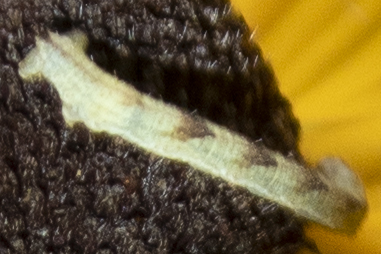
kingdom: Animalia
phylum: Arthropoda
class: Insecta
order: Lepidoptera
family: Geometridae
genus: Eupithecia
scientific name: Eupithecia
